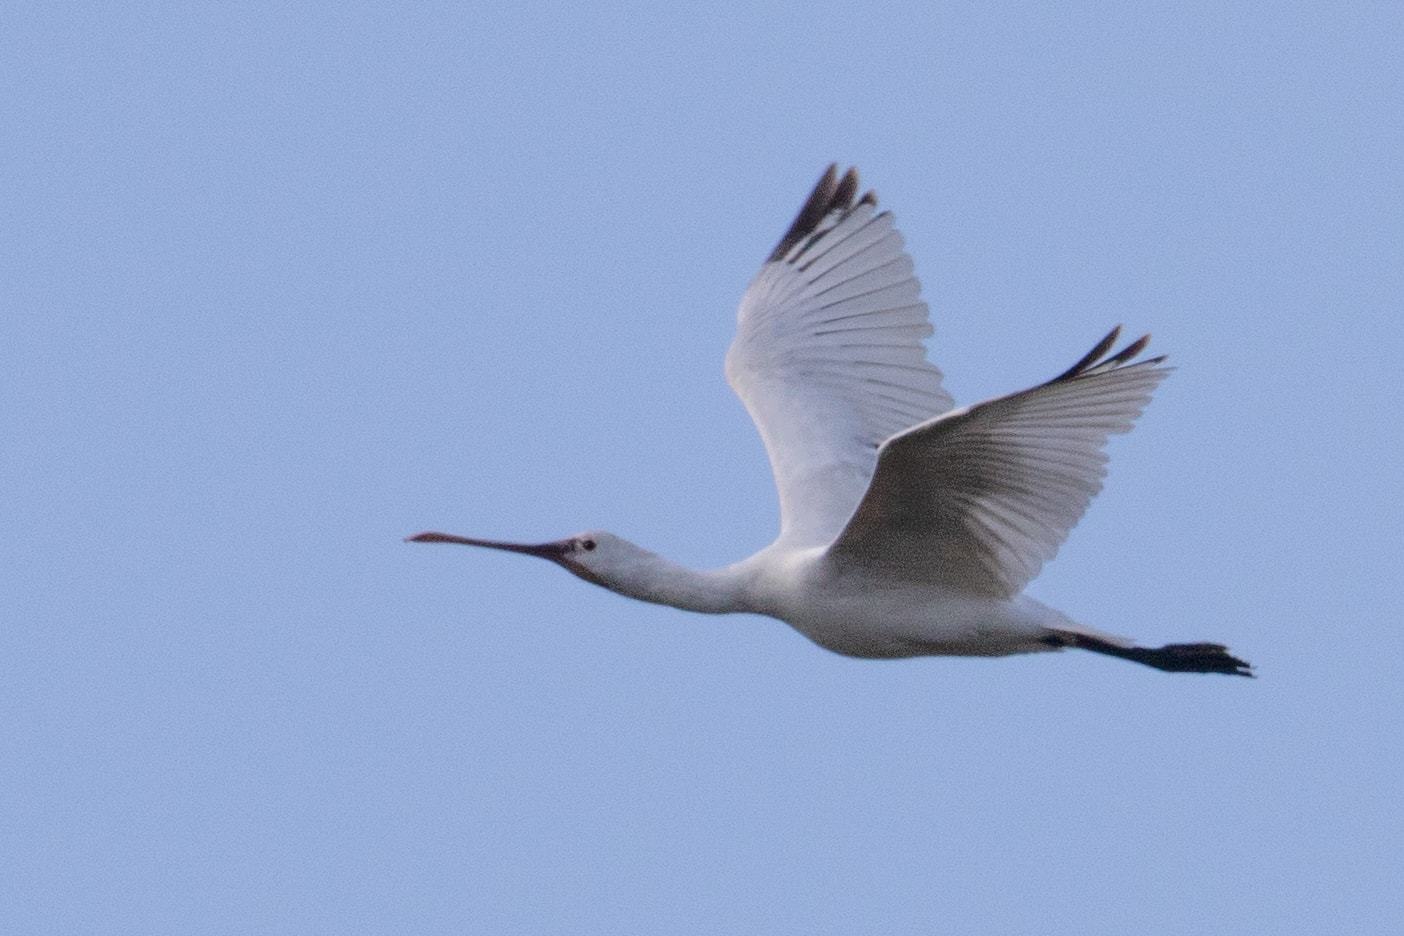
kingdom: Animalia
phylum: Chordata
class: Aves
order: Pelecaniformes
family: Threskiornithidae
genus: Platalea
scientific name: Platalea leucorodia
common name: Eurasian spoonbill
